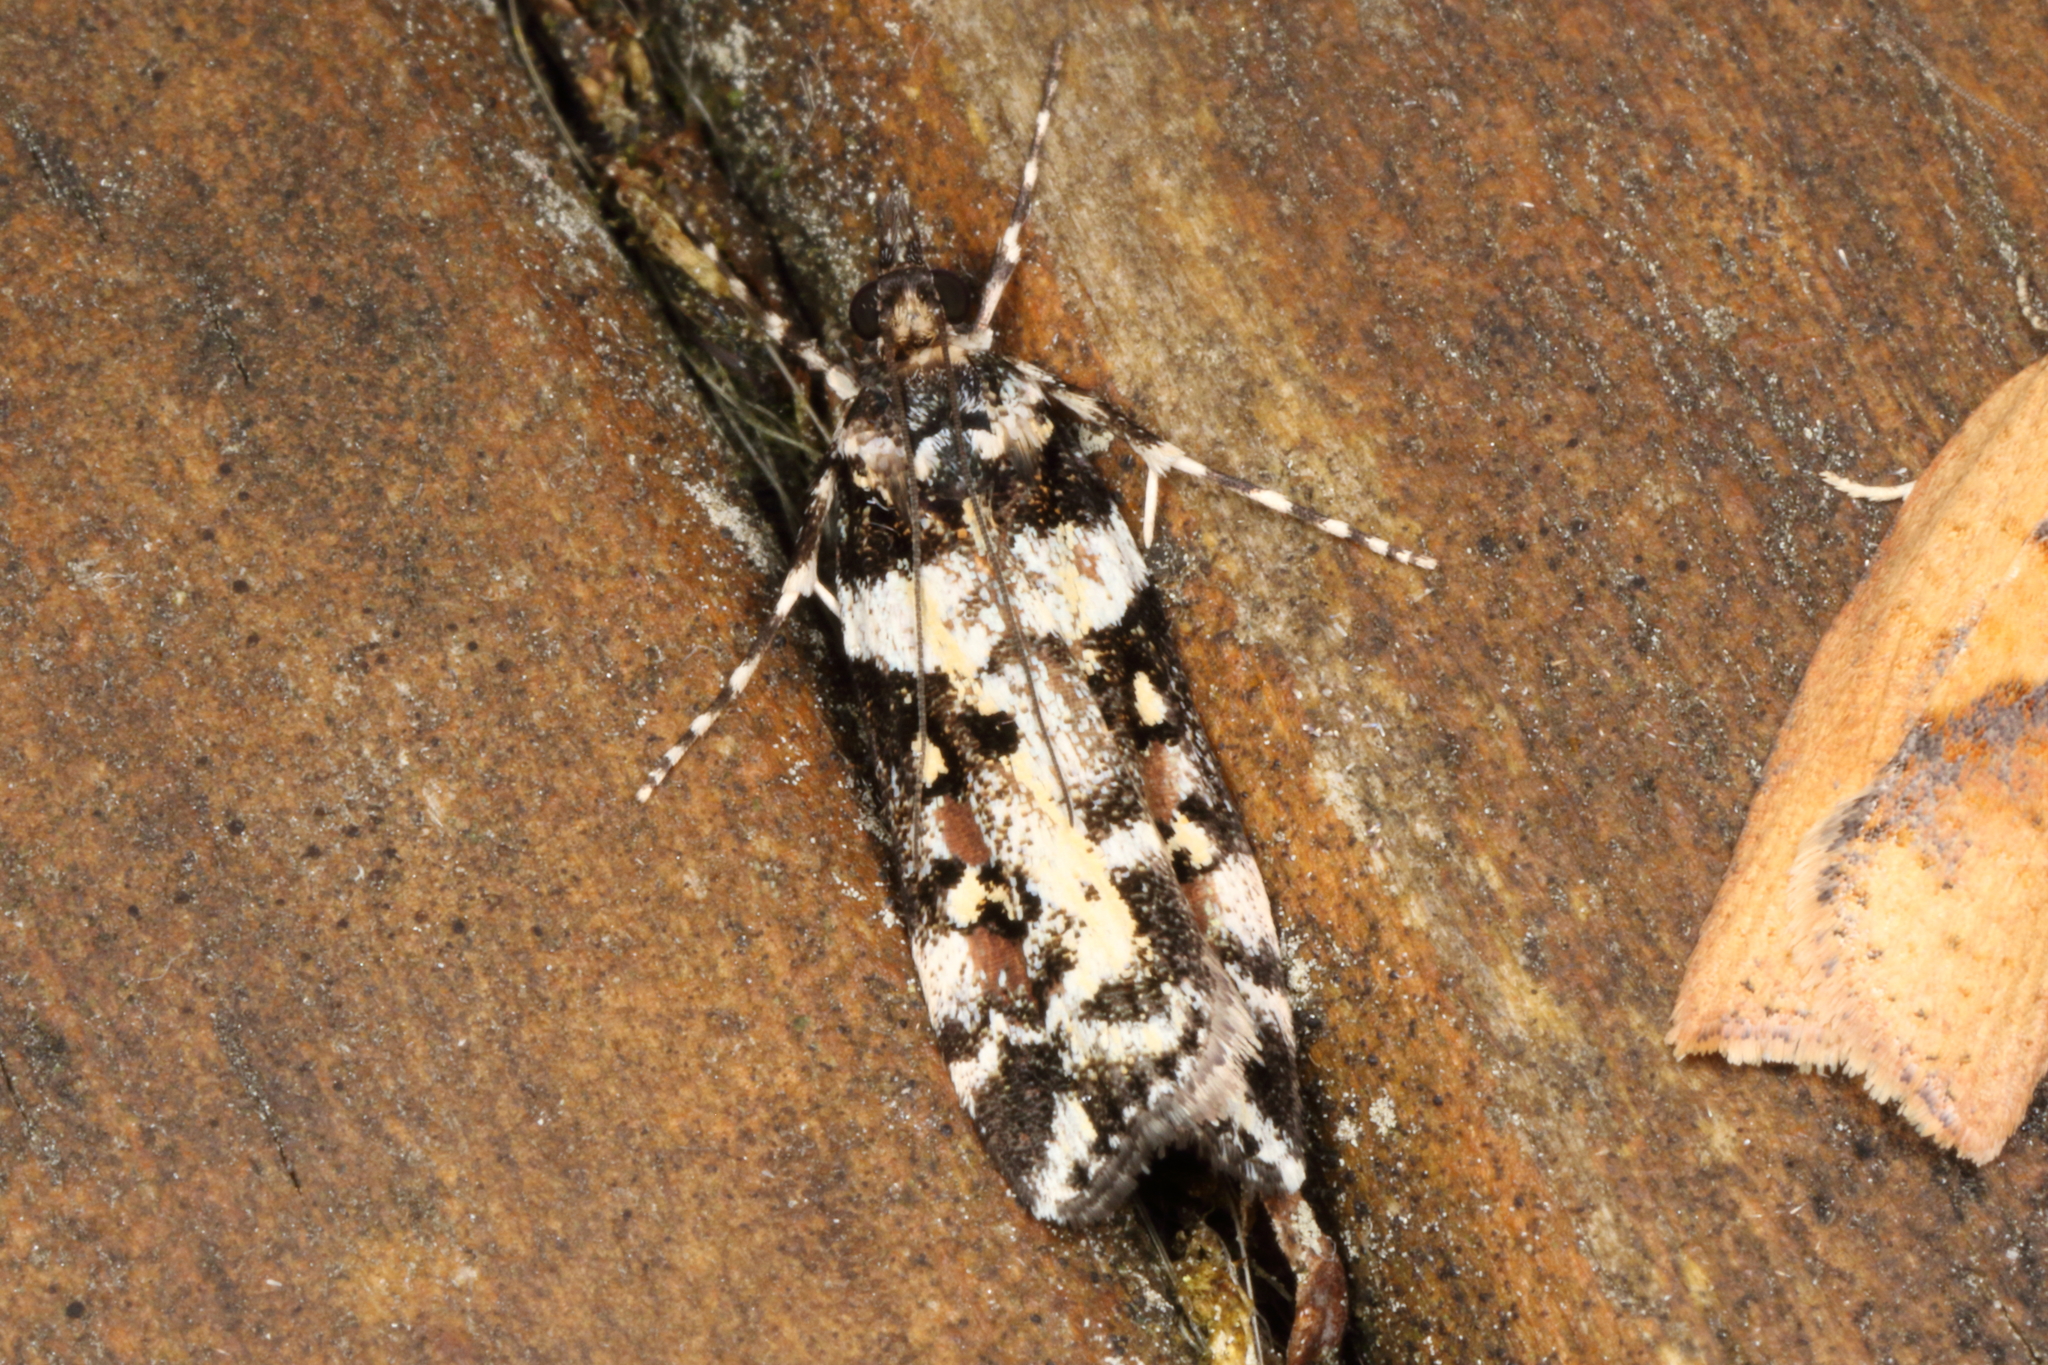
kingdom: Animalia
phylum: Arthropoda
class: Insecta
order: Lepidoptera
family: Crambidae
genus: Eudonia
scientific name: Eudonia diphtheralis
